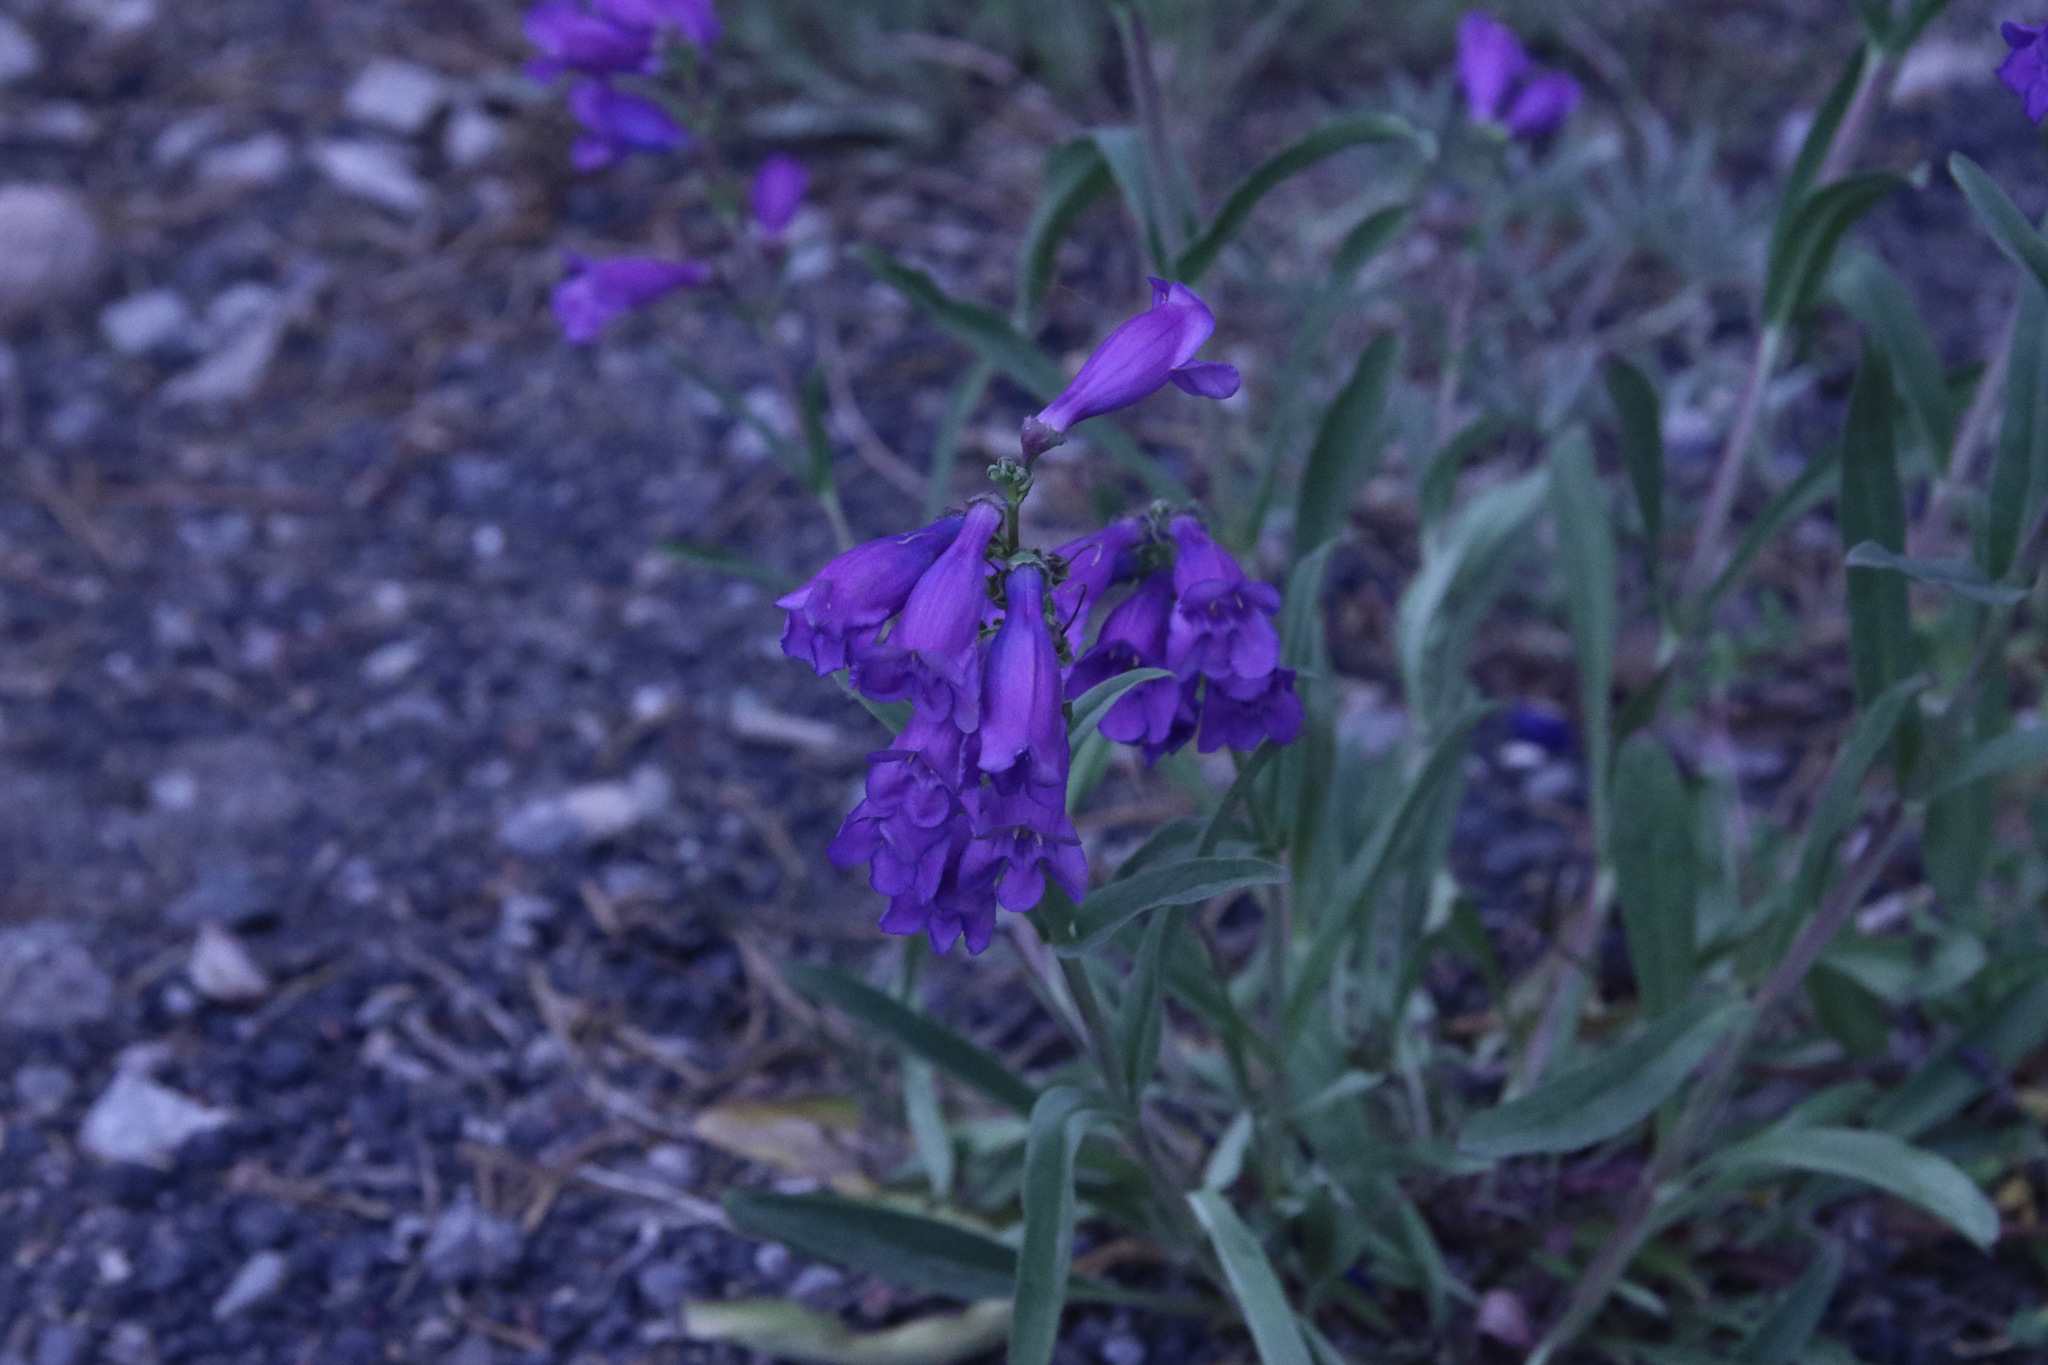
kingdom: Plantae
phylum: Tracheophyta
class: Magnoliopsida
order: Lamiales
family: Plantaginaceae
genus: Penstemon
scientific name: Penstemon strictus
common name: Rocky mountain penstemon
